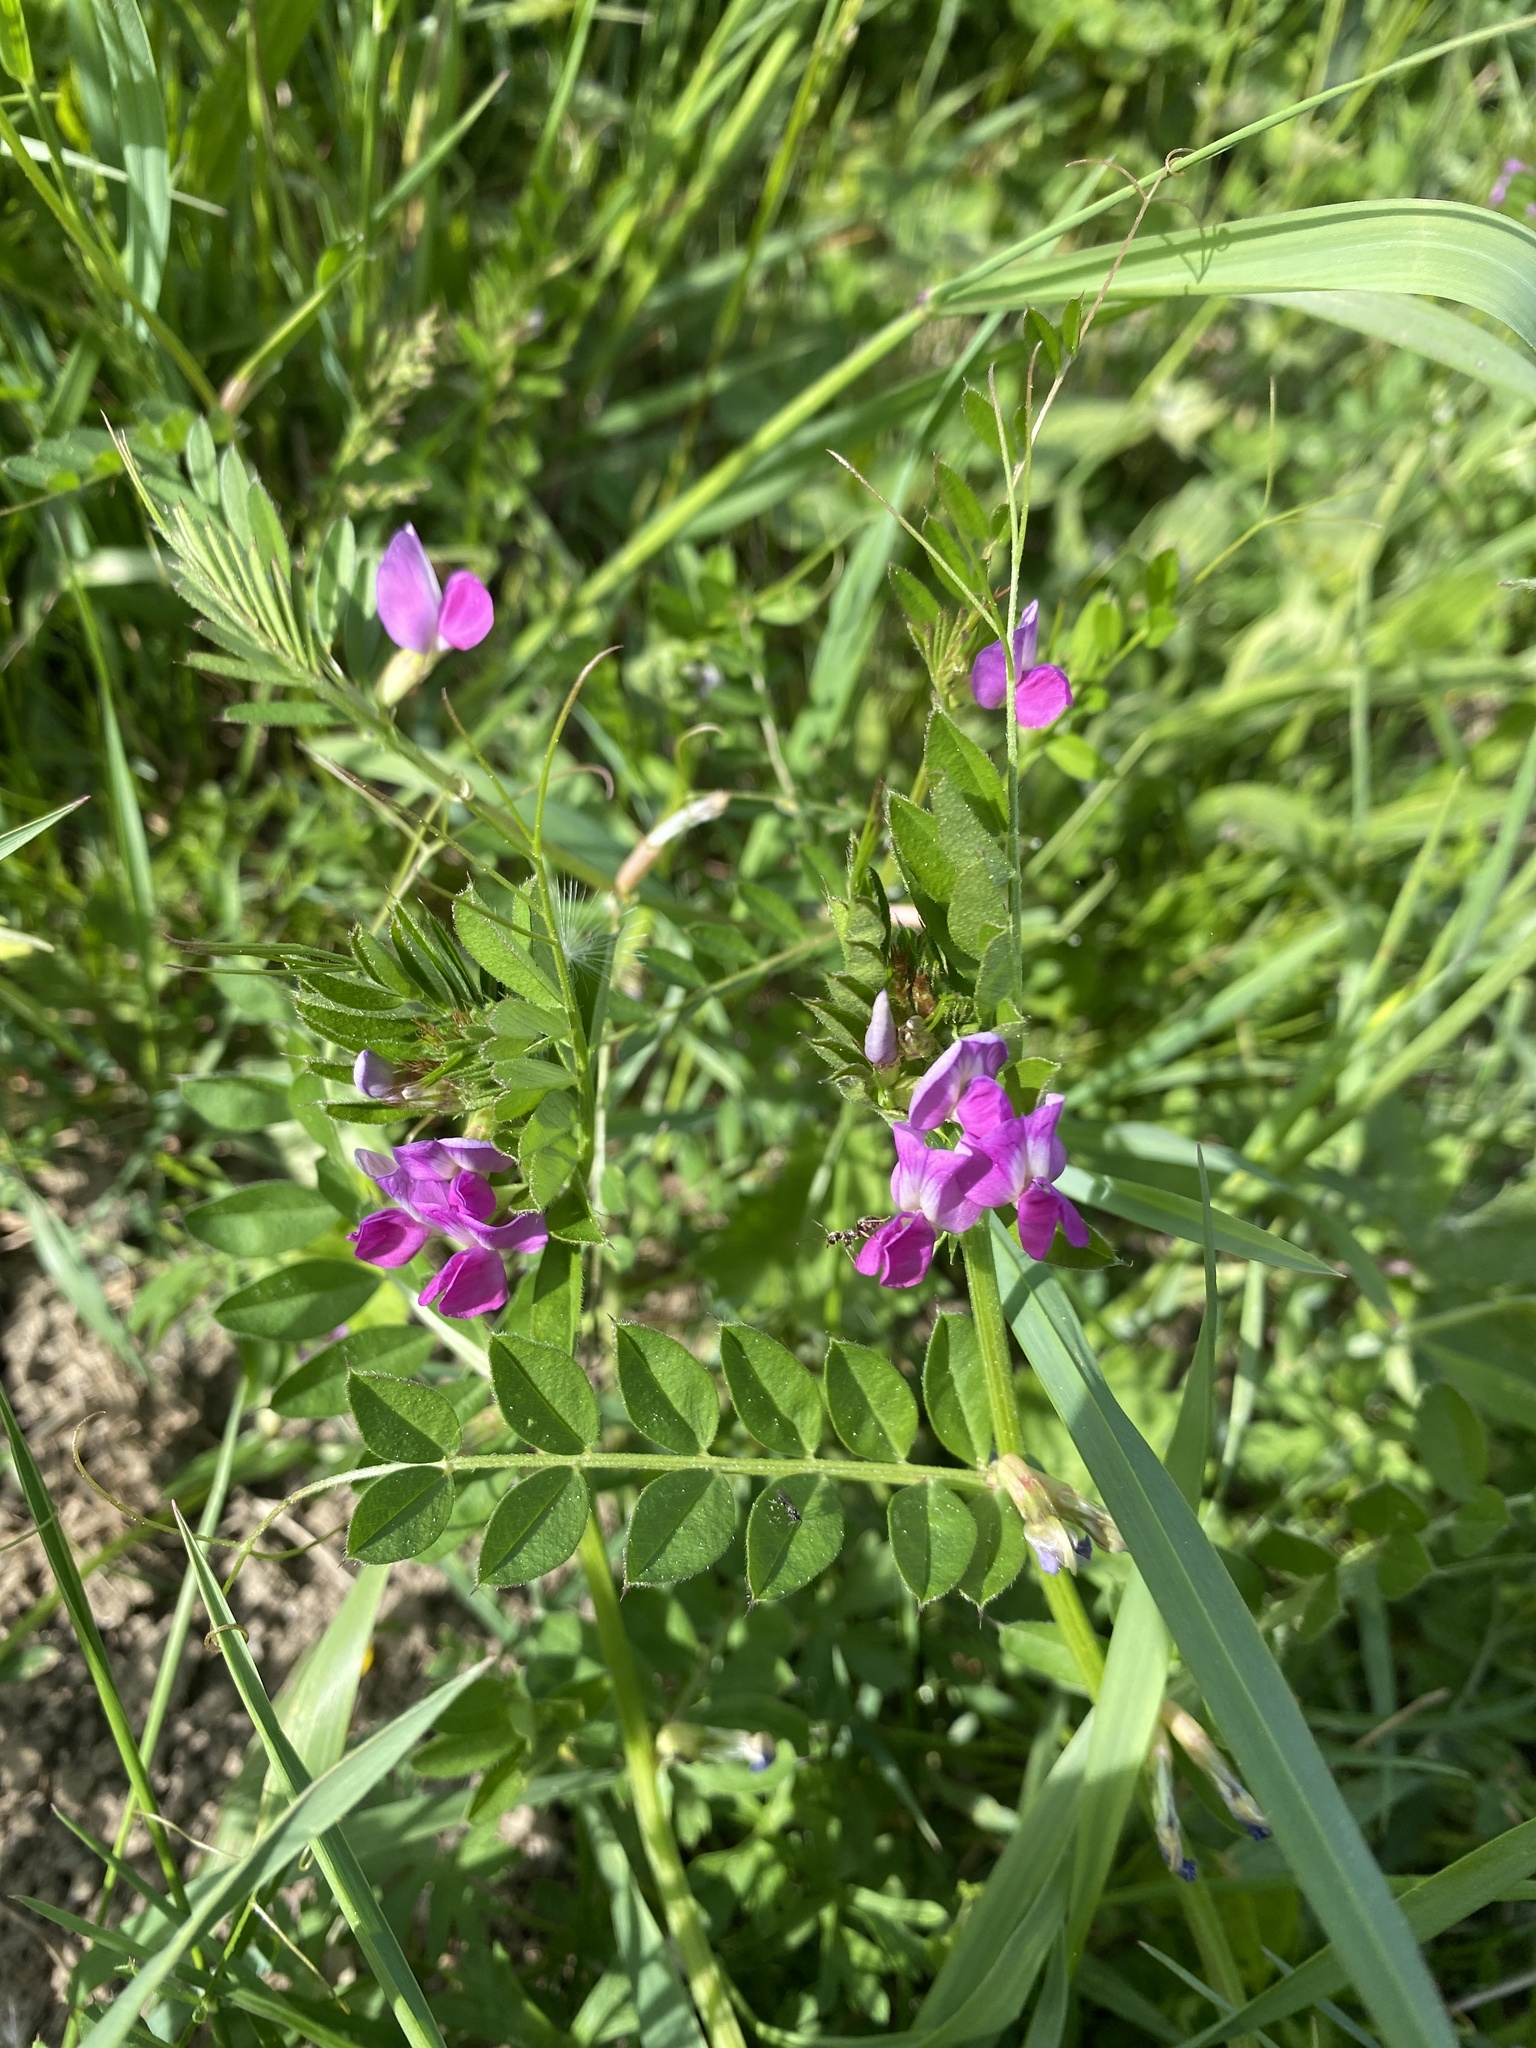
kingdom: Plantae
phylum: Tracheophyta
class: Magnoliopsida
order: Fabales
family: Fabaceae
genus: Vicia
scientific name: Vicia sativa
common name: Garden vetch
